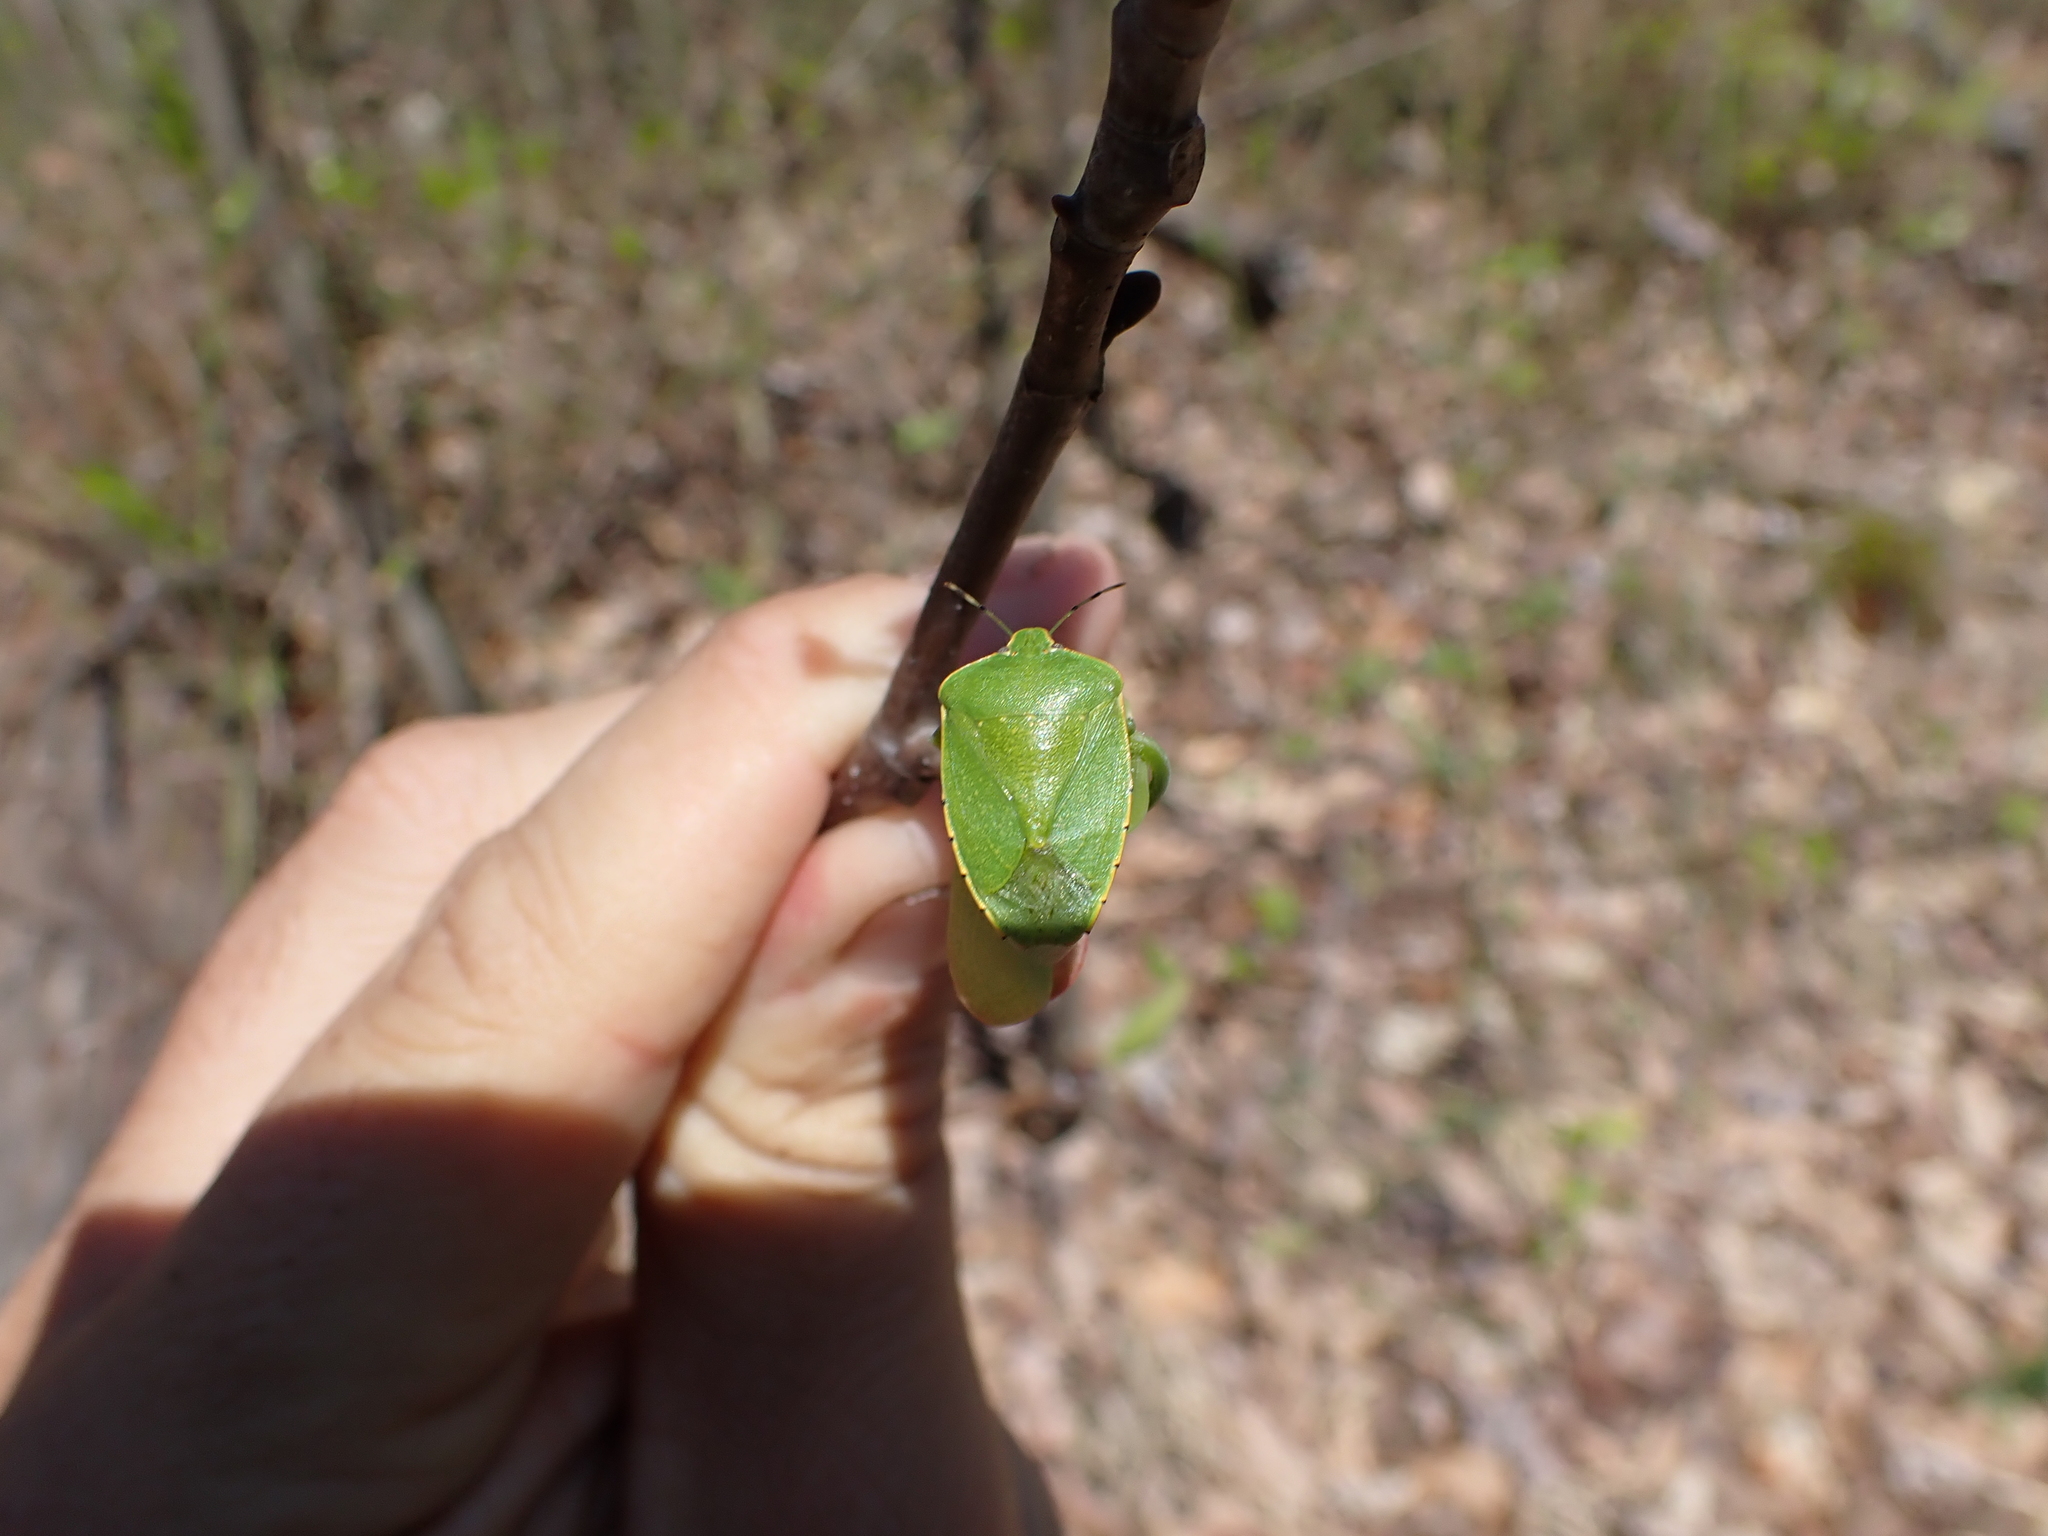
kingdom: Animalia
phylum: Arthropoda
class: Insecta
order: Hemiptera
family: Pentatomidae
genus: Chinavia
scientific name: Chinavia hilaris
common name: Green stink bug
